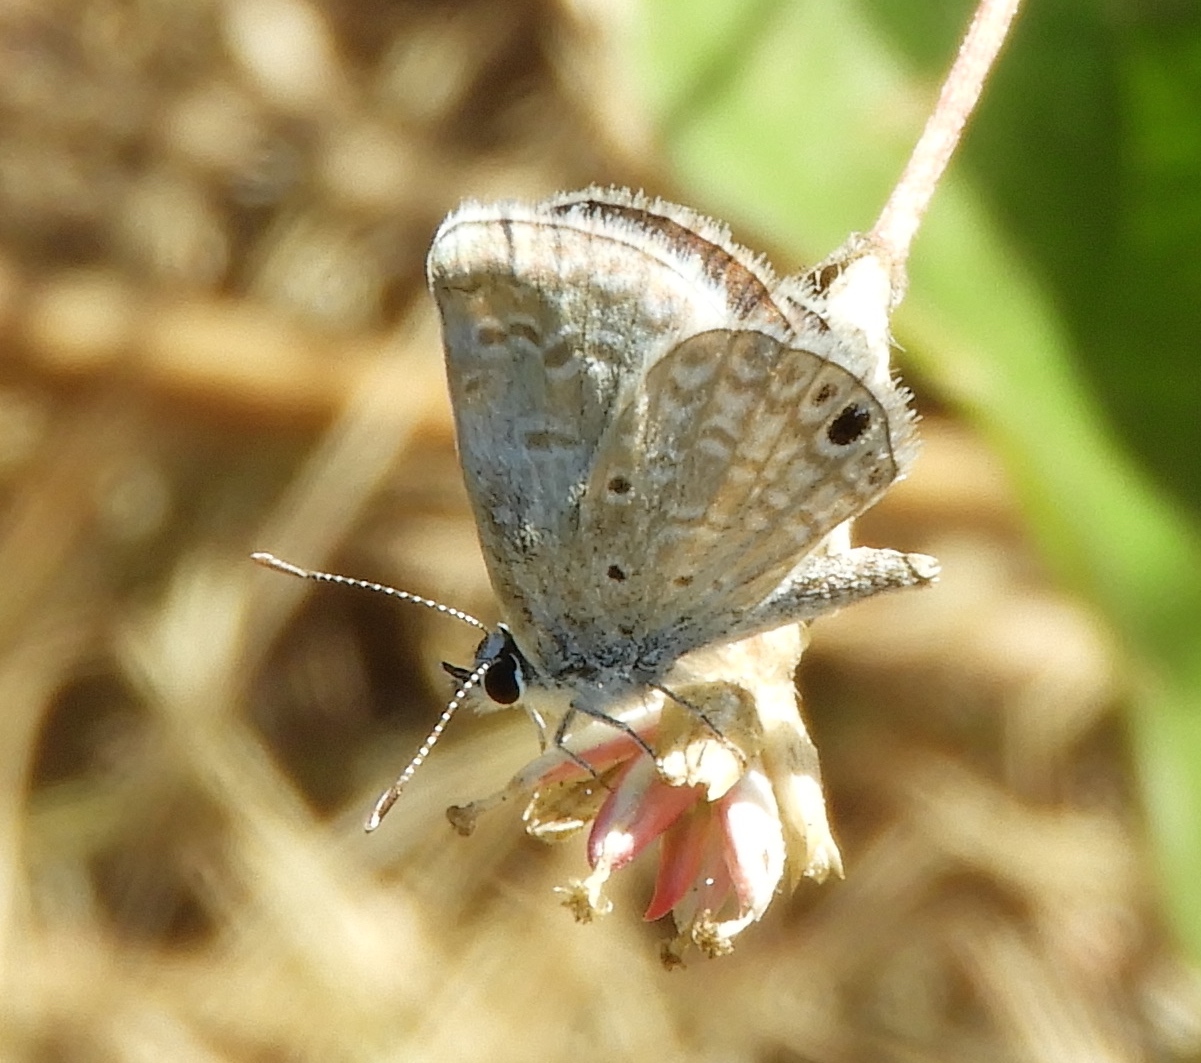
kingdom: Animalia
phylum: Arthropoda
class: Insecta
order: Lepidoptera
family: Lycaenidae
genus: Echinargus
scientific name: Echinargus isola
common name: Reakirt's blue
